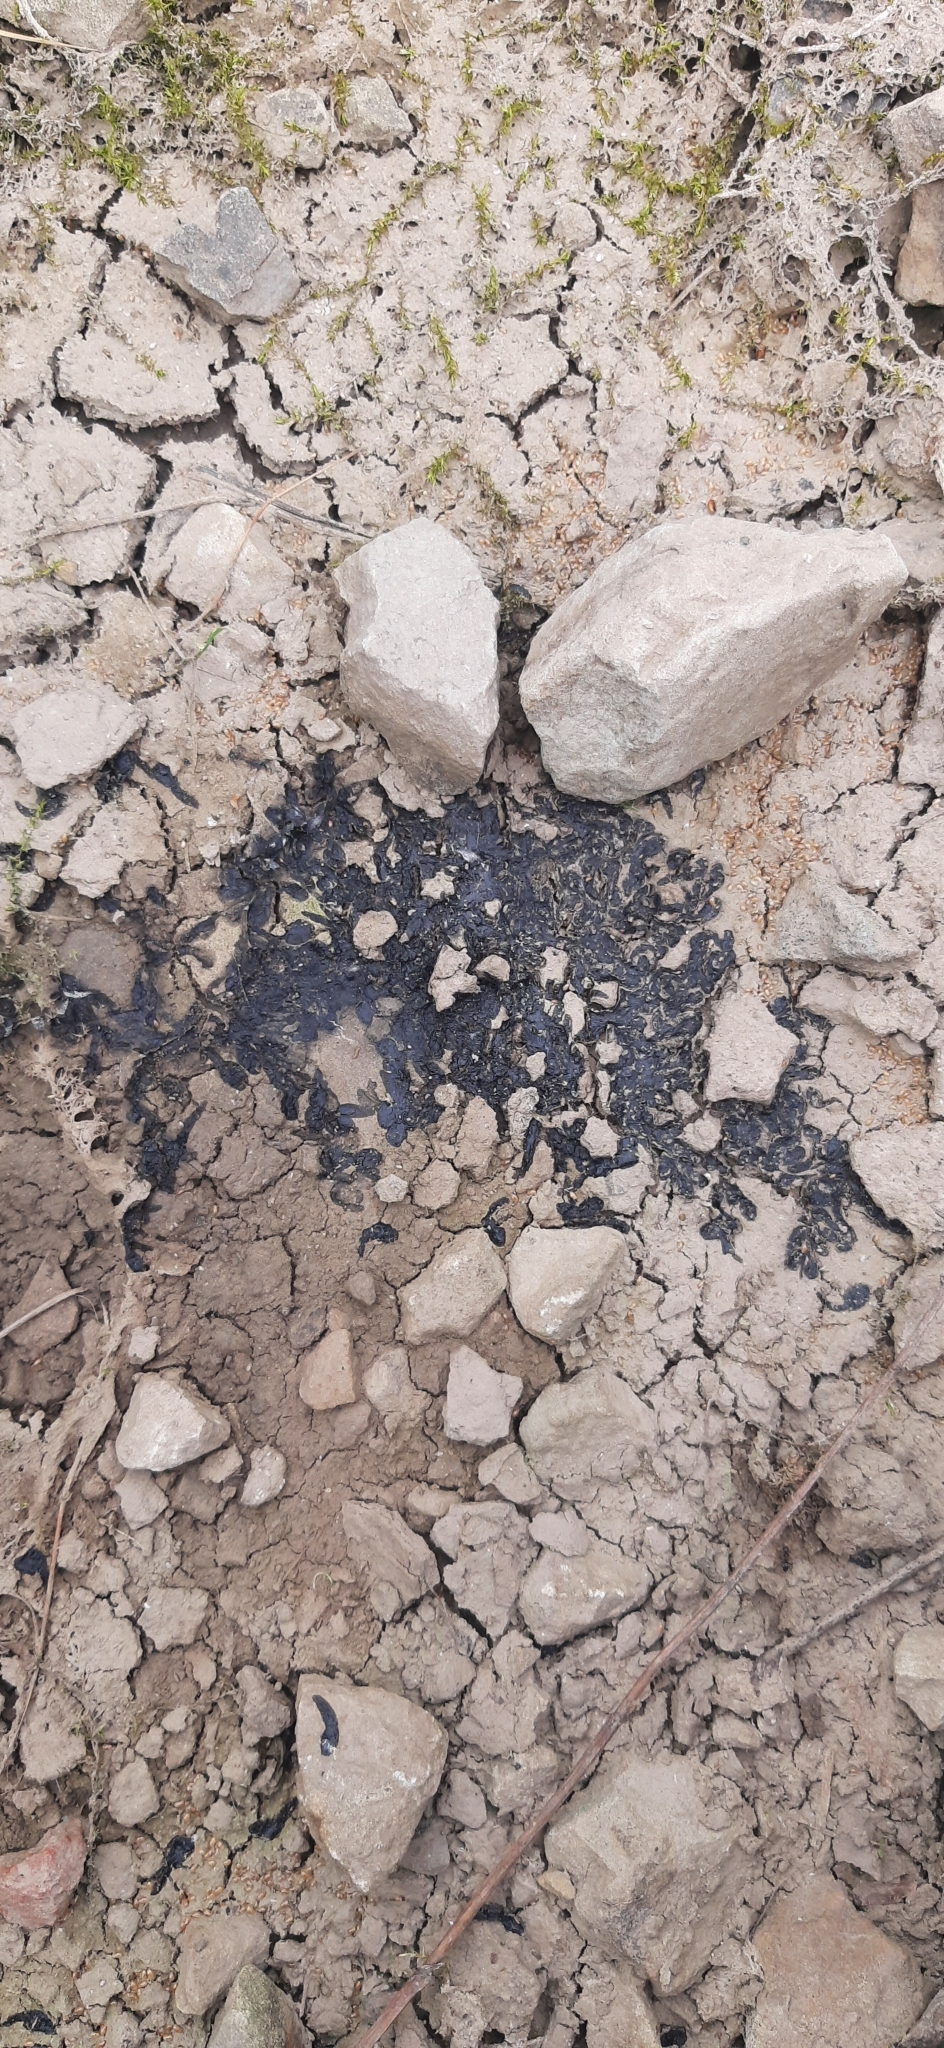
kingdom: Animalia
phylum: Chordata
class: Amphibia
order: Anura
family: Bufonidae
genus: Epidalea
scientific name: Epidalea calamita
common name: Natterjack toad
